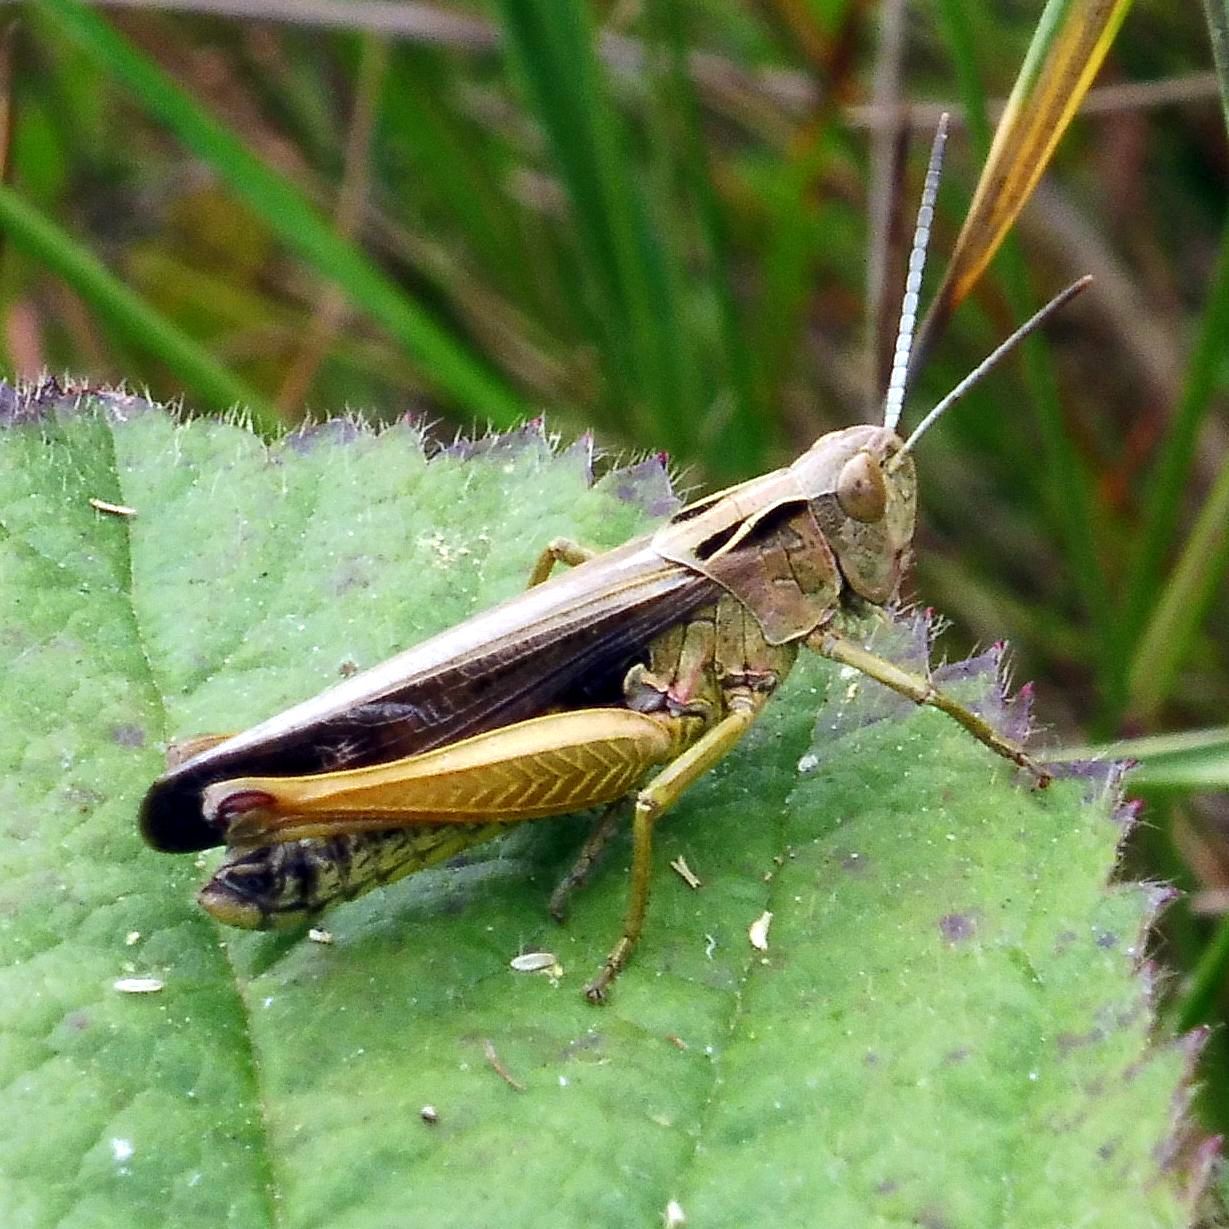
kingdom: Animalia
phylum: Arthropoda
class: Insecta
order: Orthoptera
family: Acrididae
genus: Omocestus
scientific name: Omocestus viridulus
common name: Common green grasshopper
